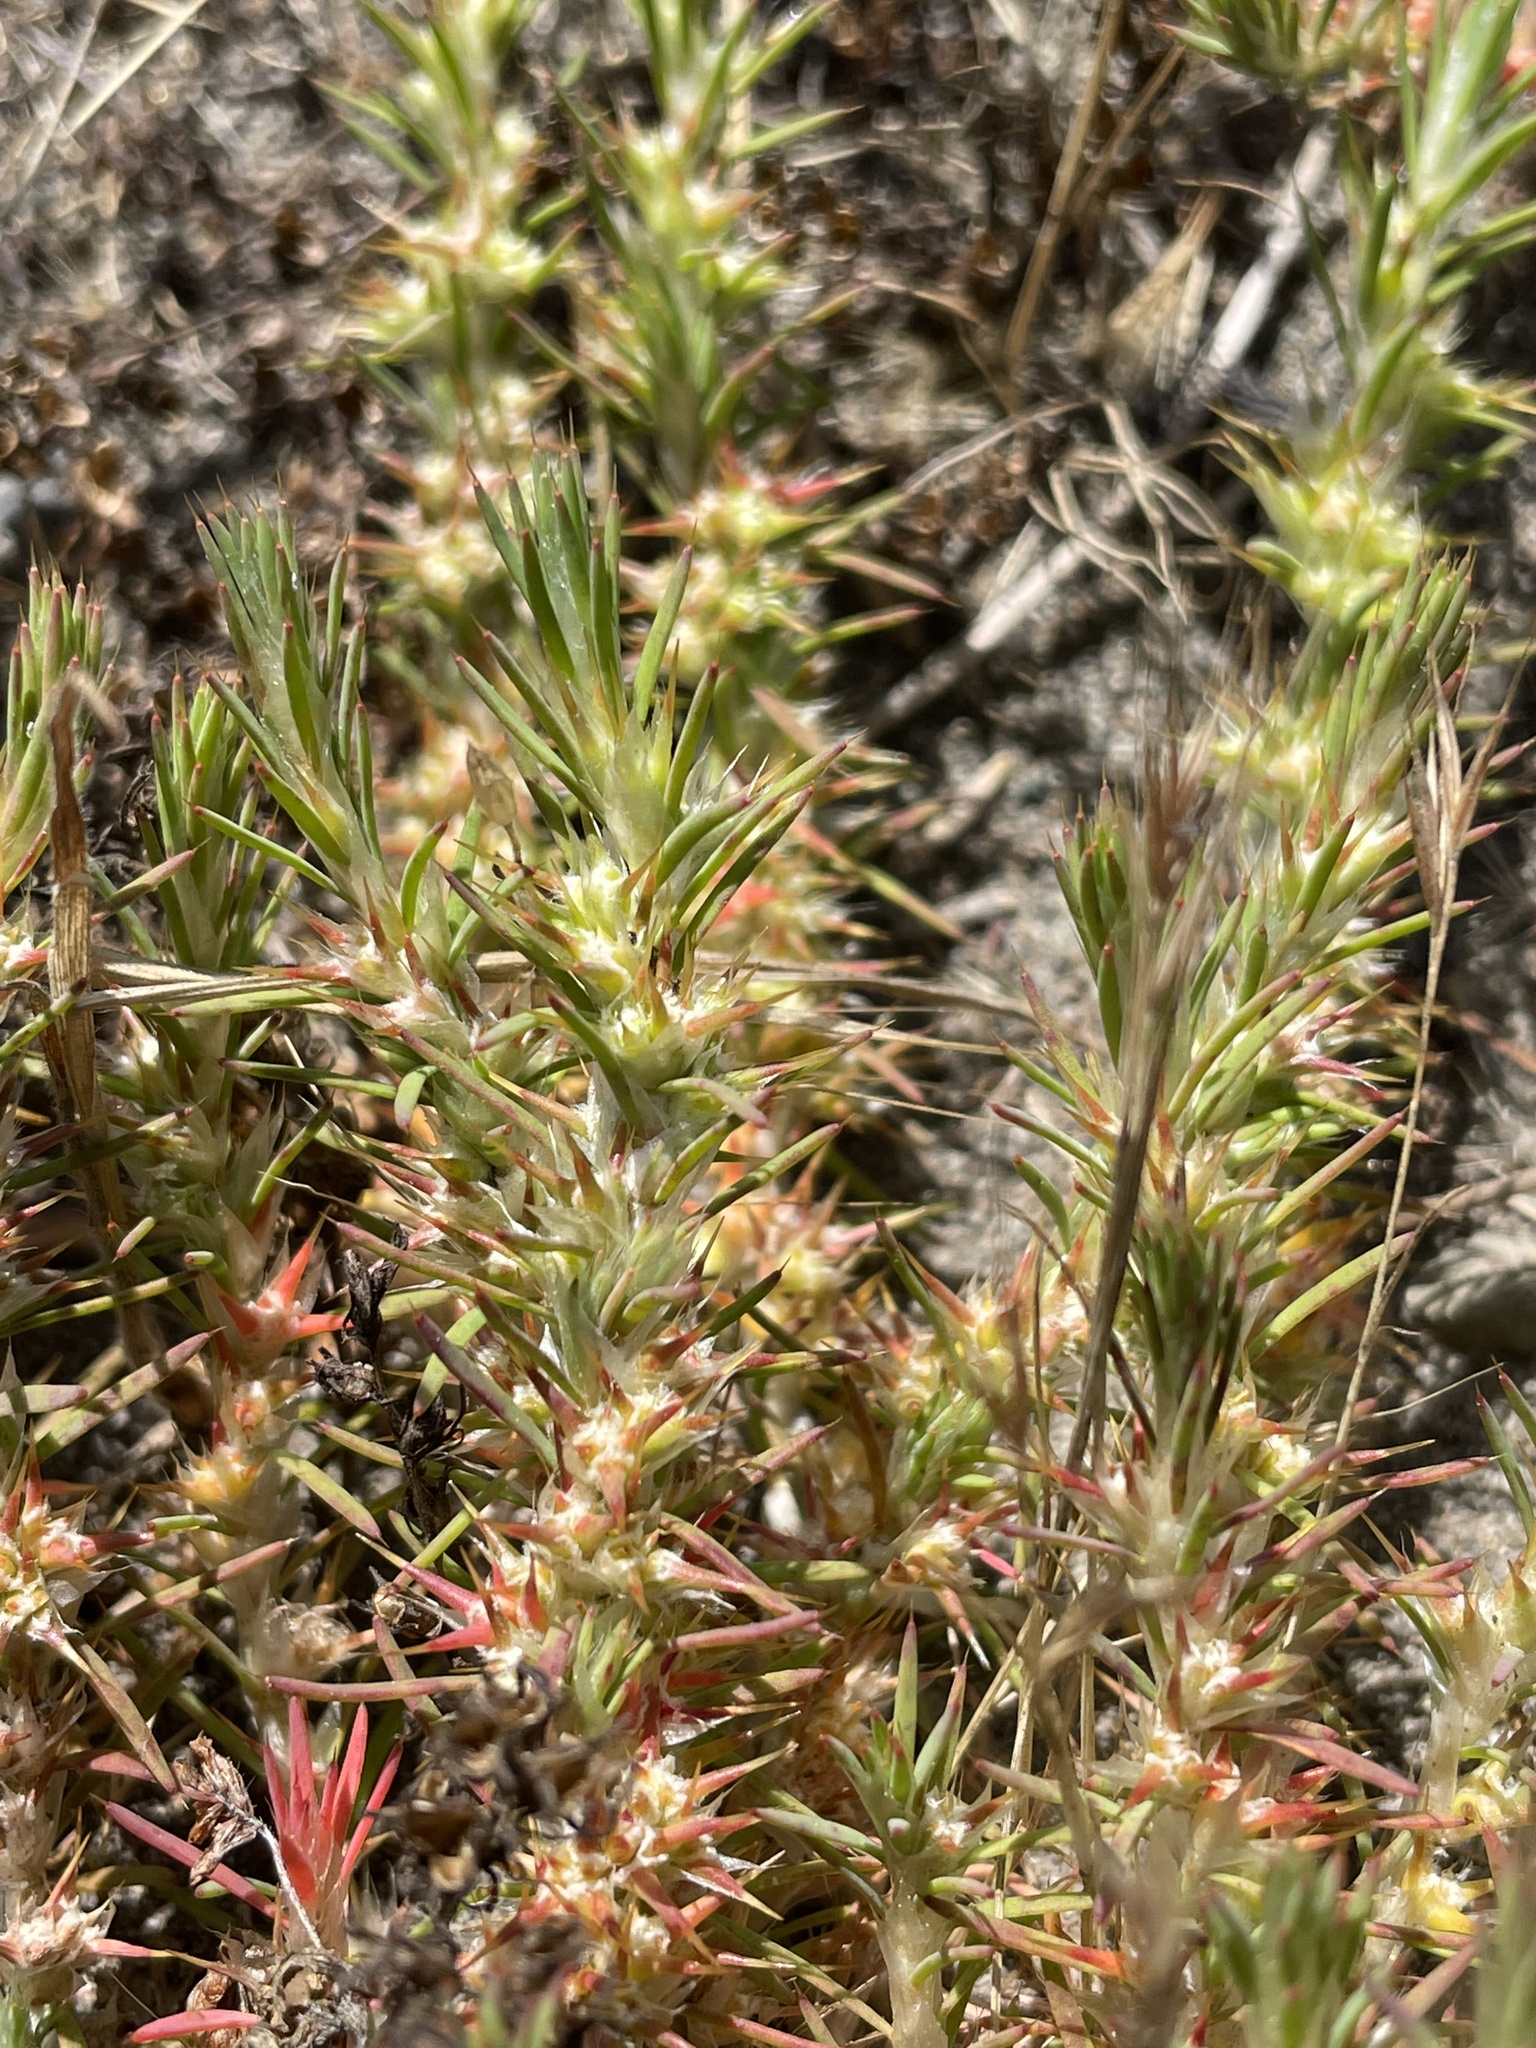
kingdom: Plantae
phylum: Tracheophyta
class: Magnoliopsida
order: Caryophyllales
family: Caryophyllaceae
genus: Cardionema
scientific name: Cardionema ramosissima
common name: Sandcarpet
